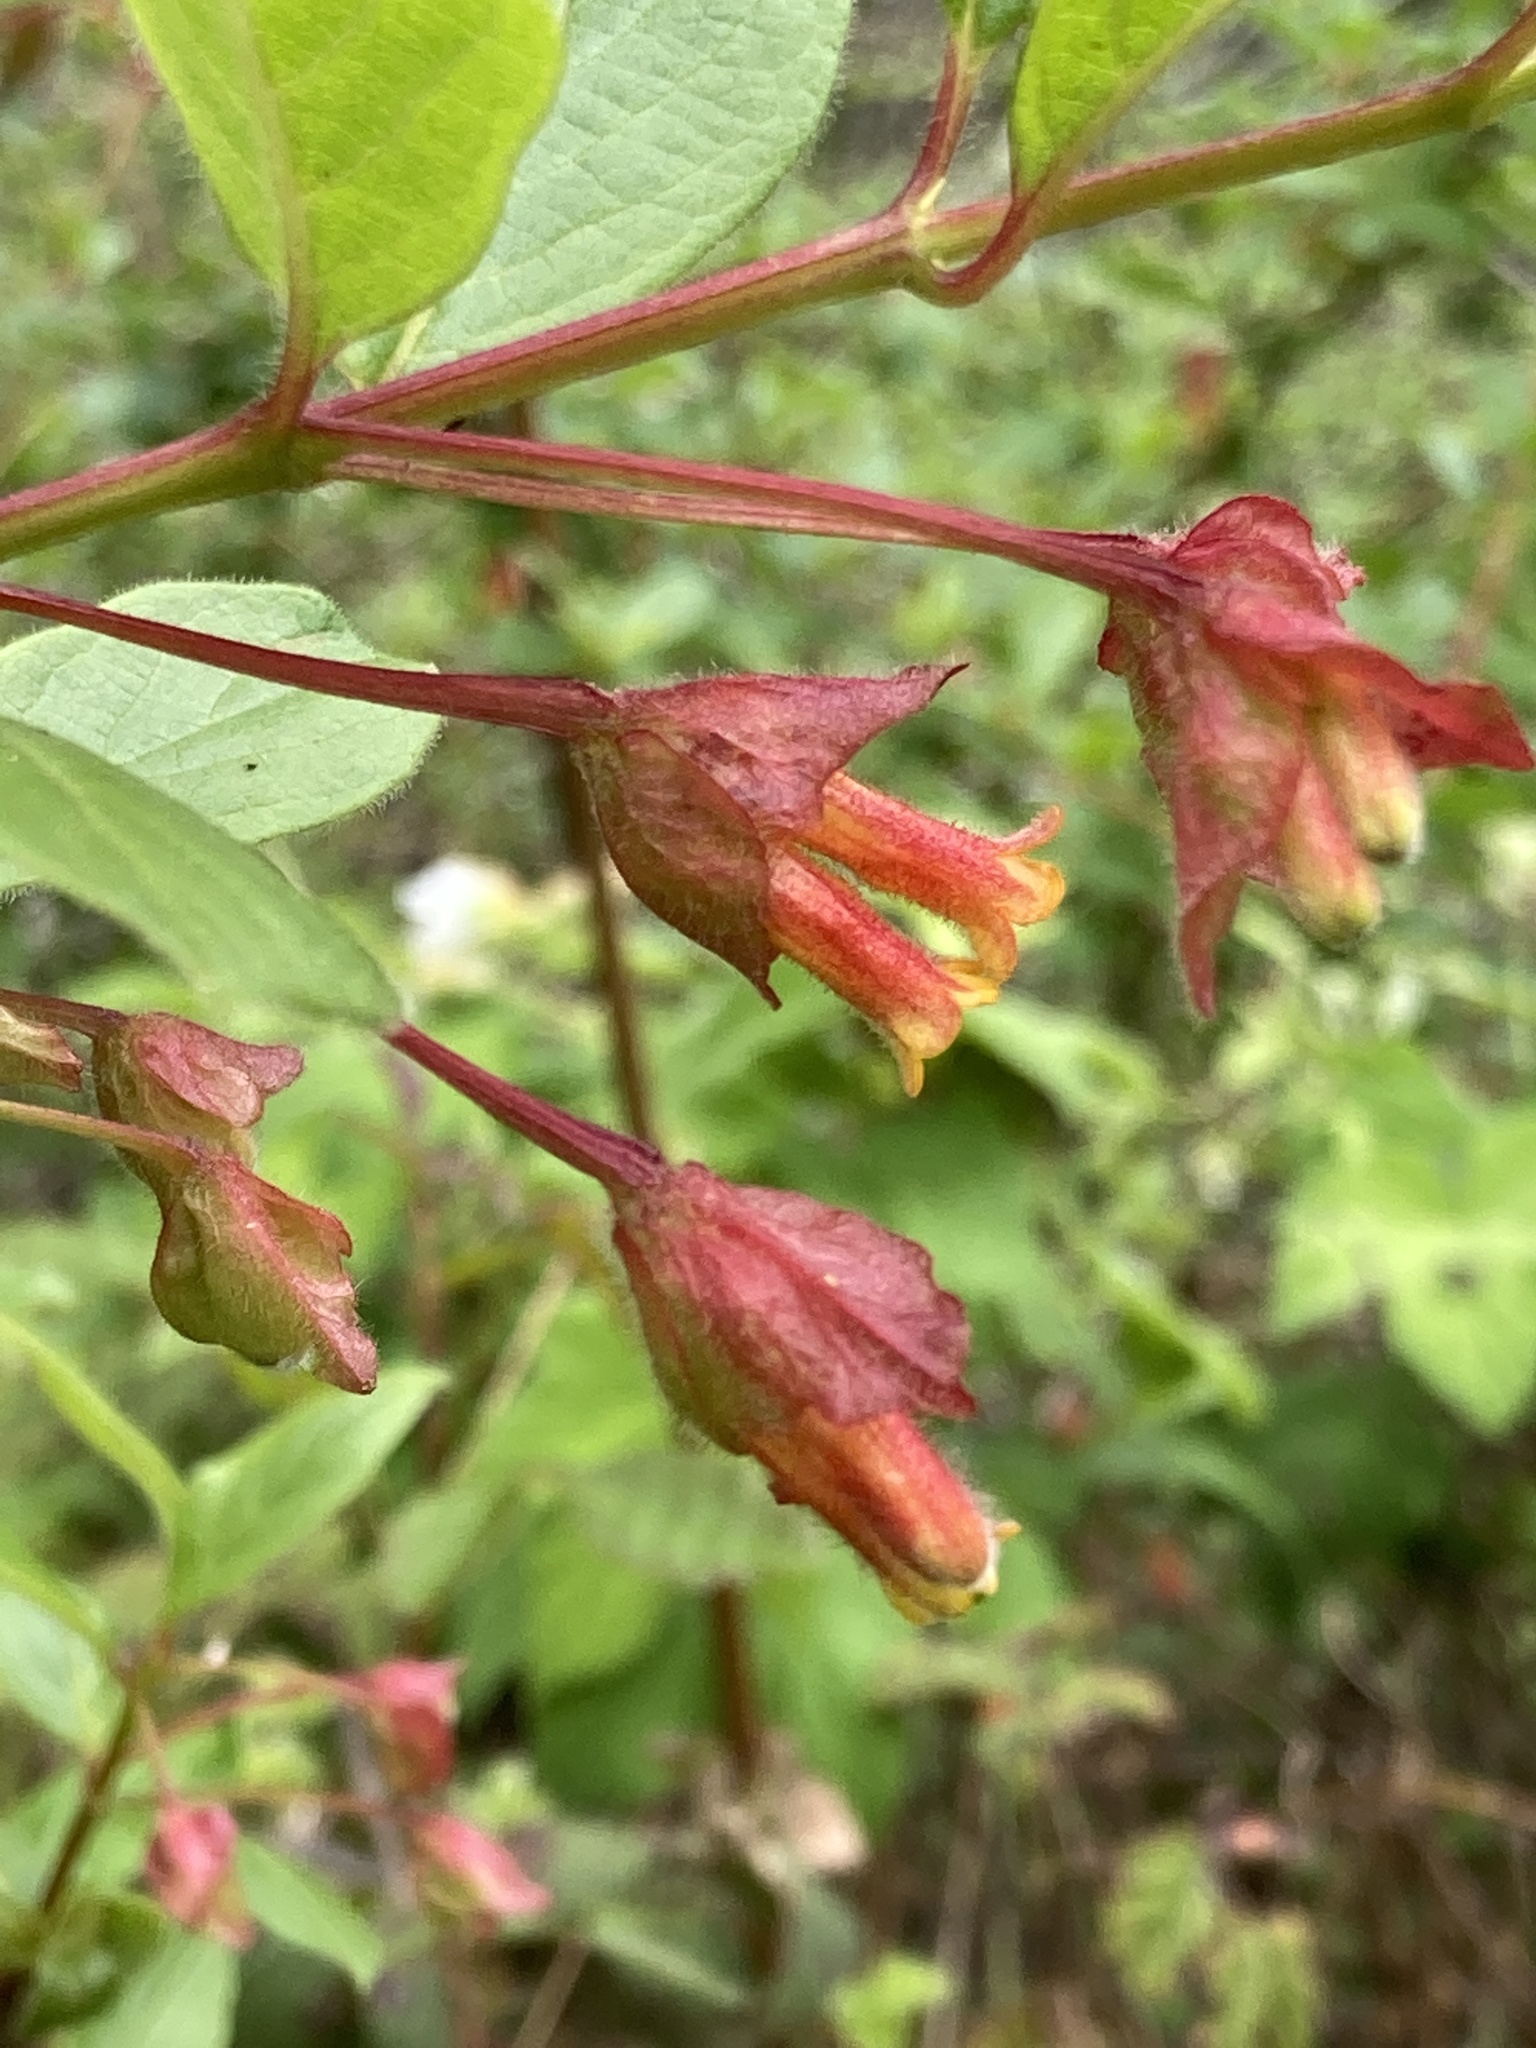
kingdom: Plantae
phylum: Tracheophyta
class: Magnoliopsida
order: Dipsacales
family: Caprifoliaceae
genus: Lonicera
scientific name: Lonicera involucrata
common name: Californian honeysuckle
